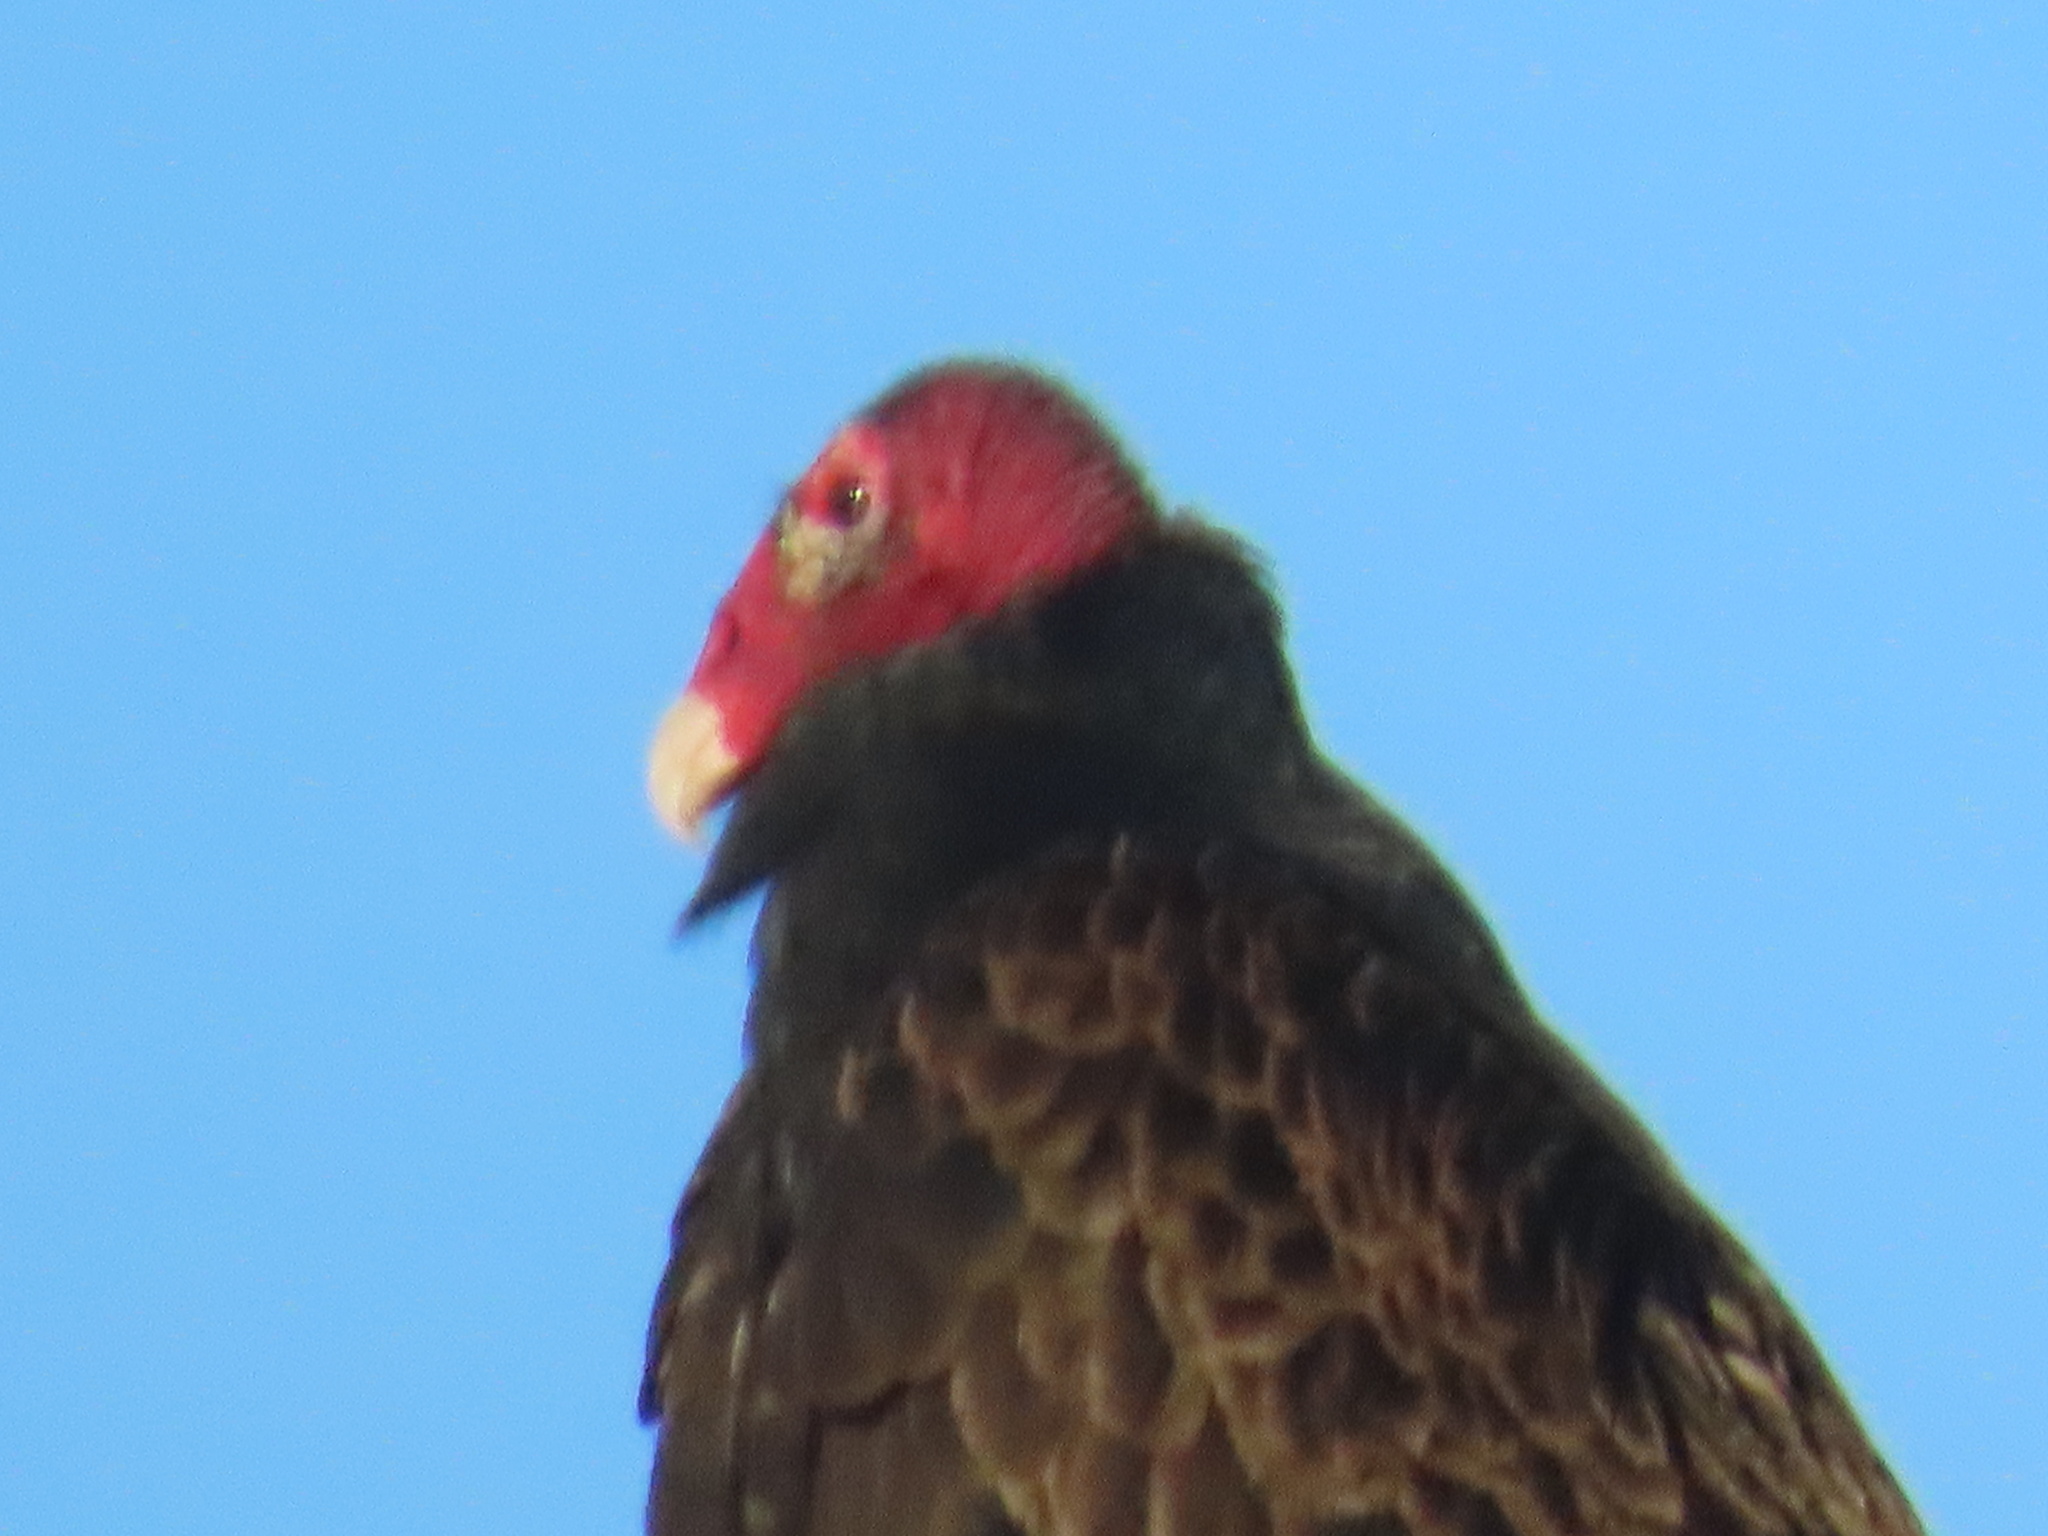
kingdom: Animalia
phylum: Chordata
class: Aves
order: Accipitriformes
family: Cathartidae
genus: Cathartes
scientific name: Cathartes aura
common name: Turkey vulture
